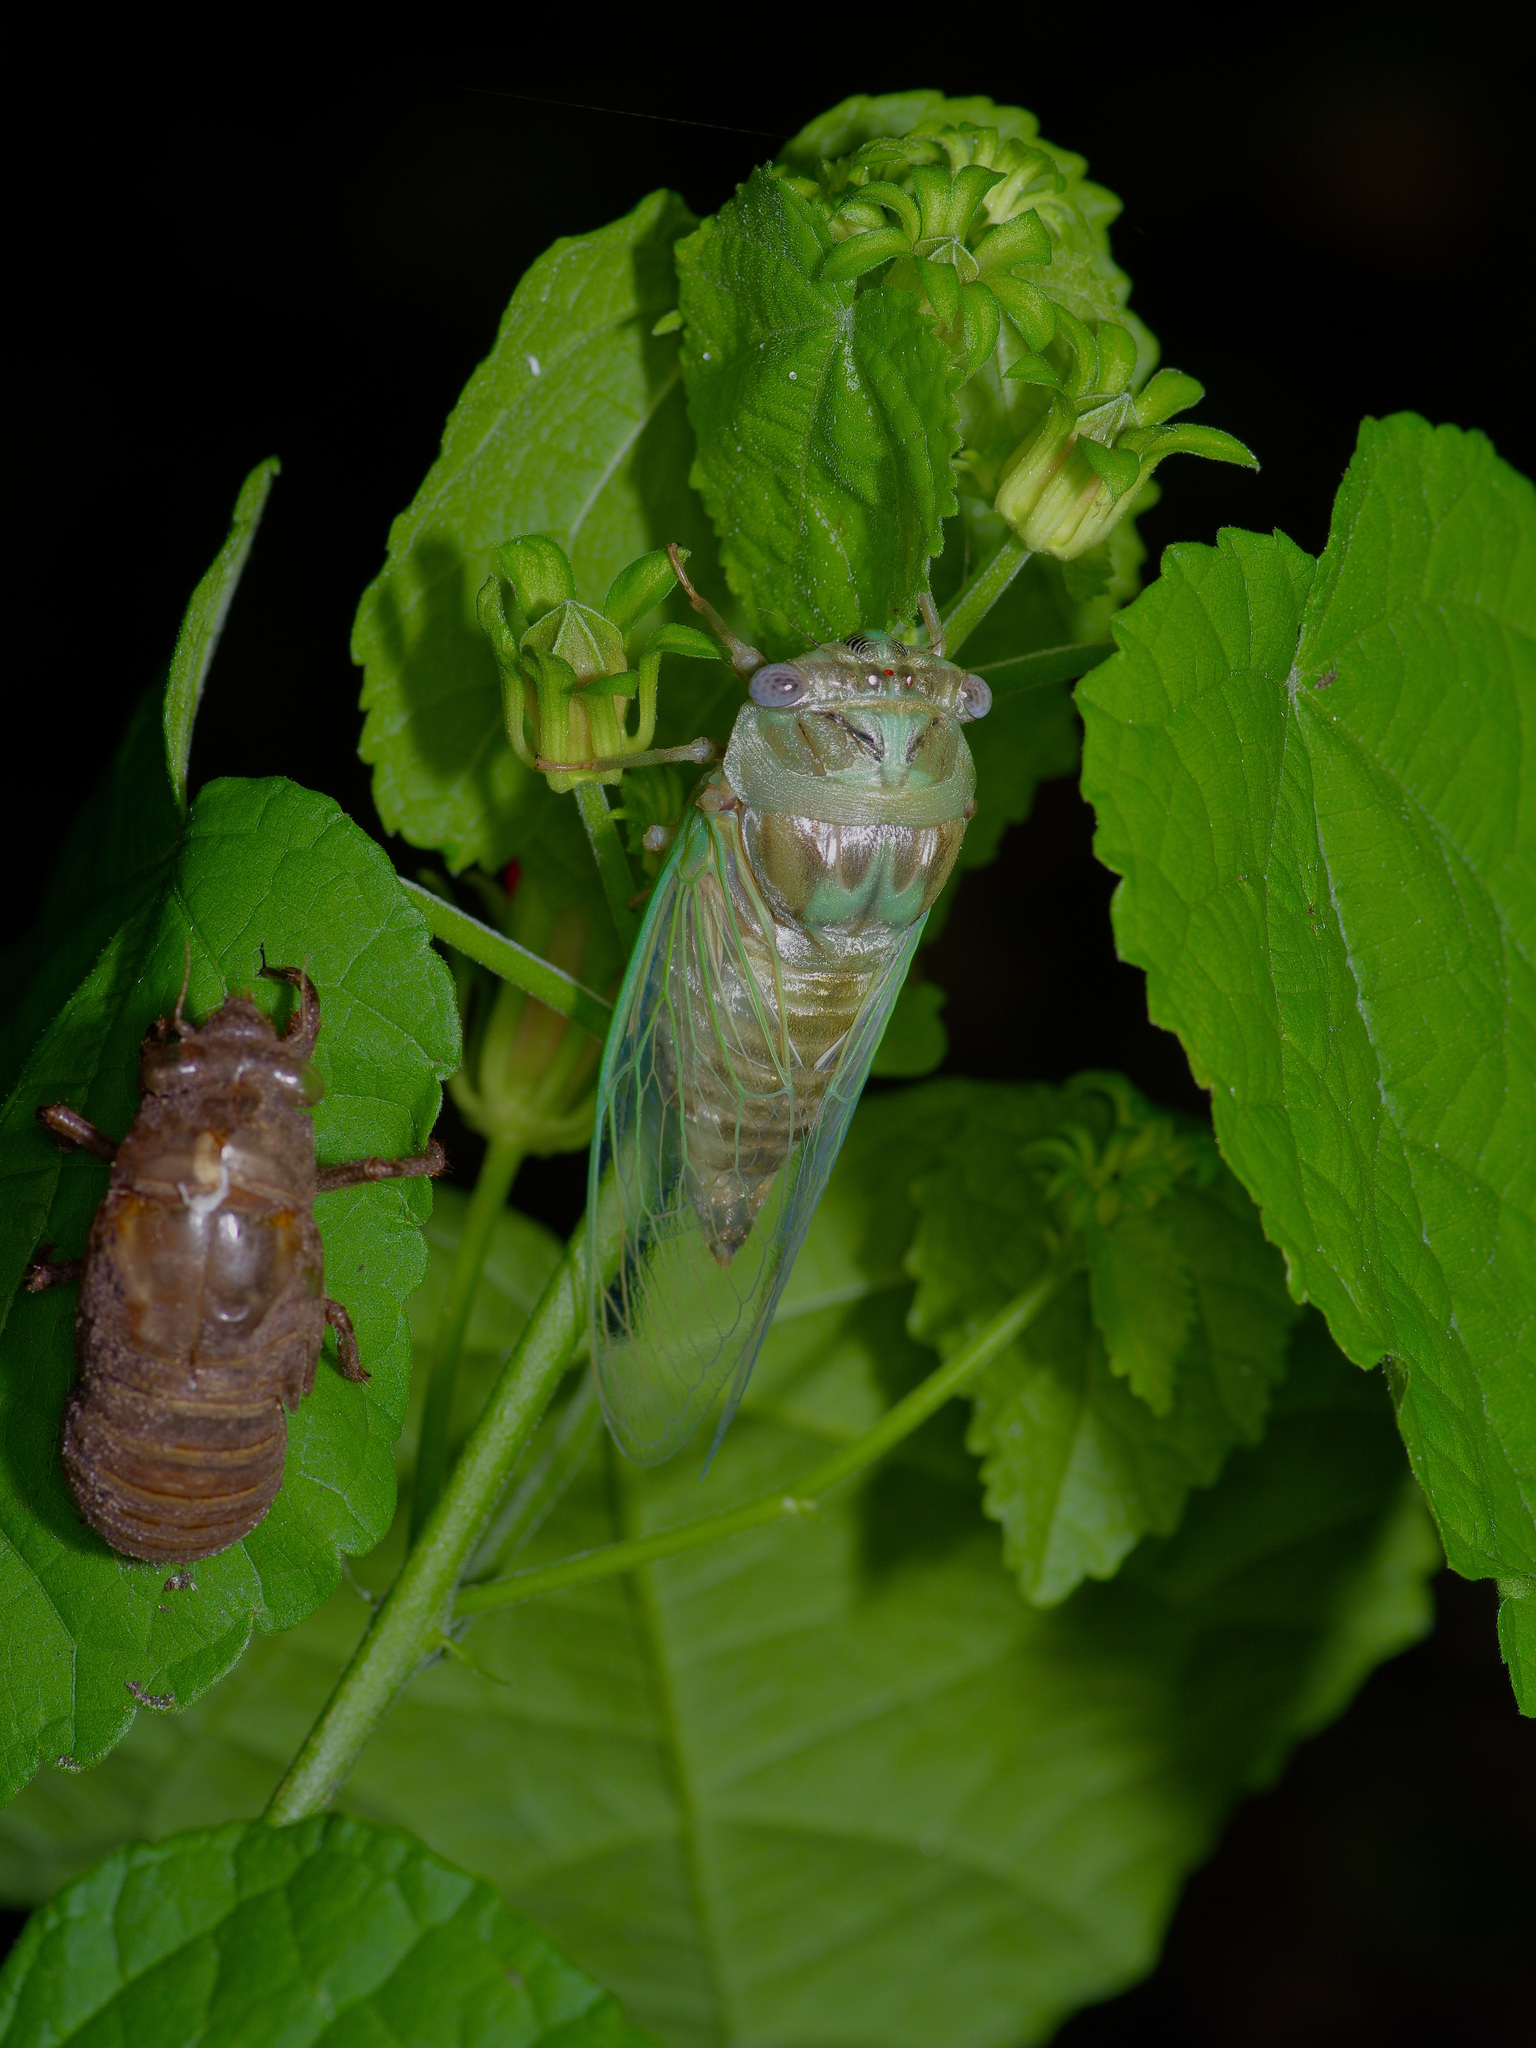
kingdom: Animalia
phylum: Arthropoda
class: Insecta
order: Hemiptera
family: Cicadidae
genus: Megatibicen
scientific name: Megatibicen resh
